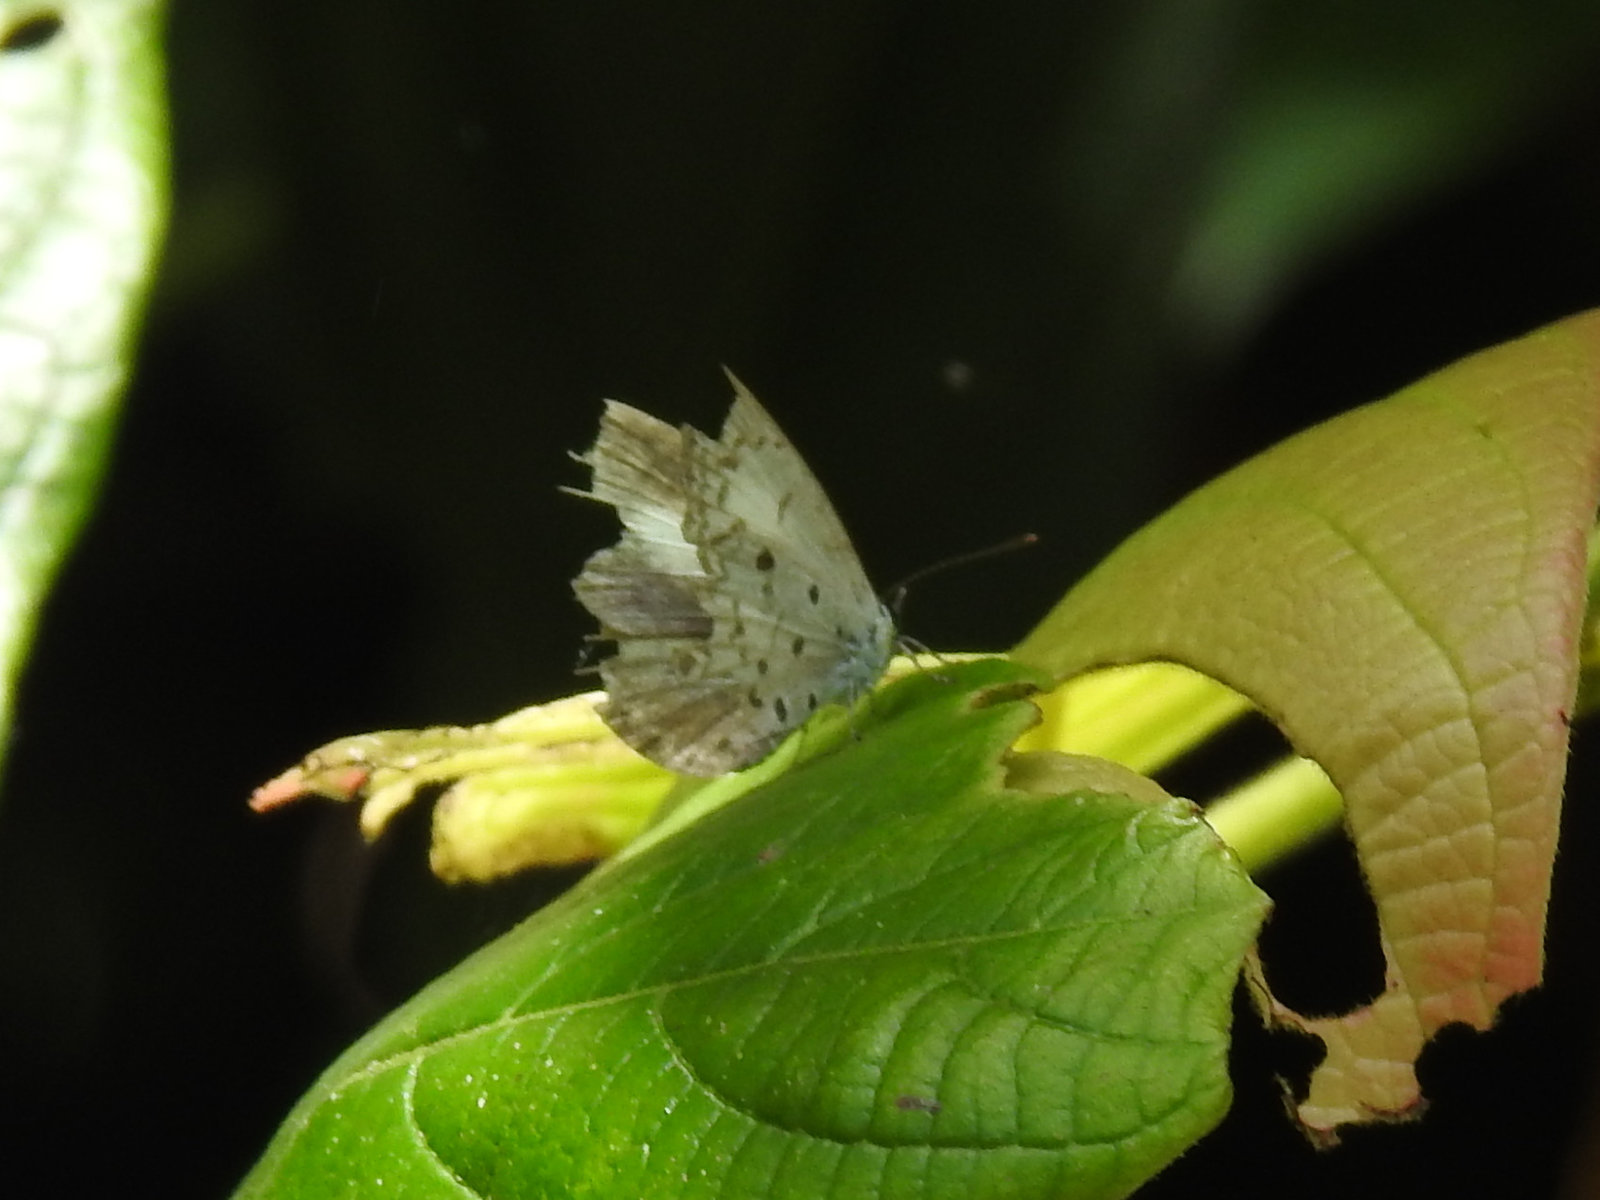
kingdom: Animalia
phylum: Arthropoda
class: Insecta
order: Lepidoptera
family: Lycaenidae
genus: Acytolepis
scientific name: Acytolepis puspa
